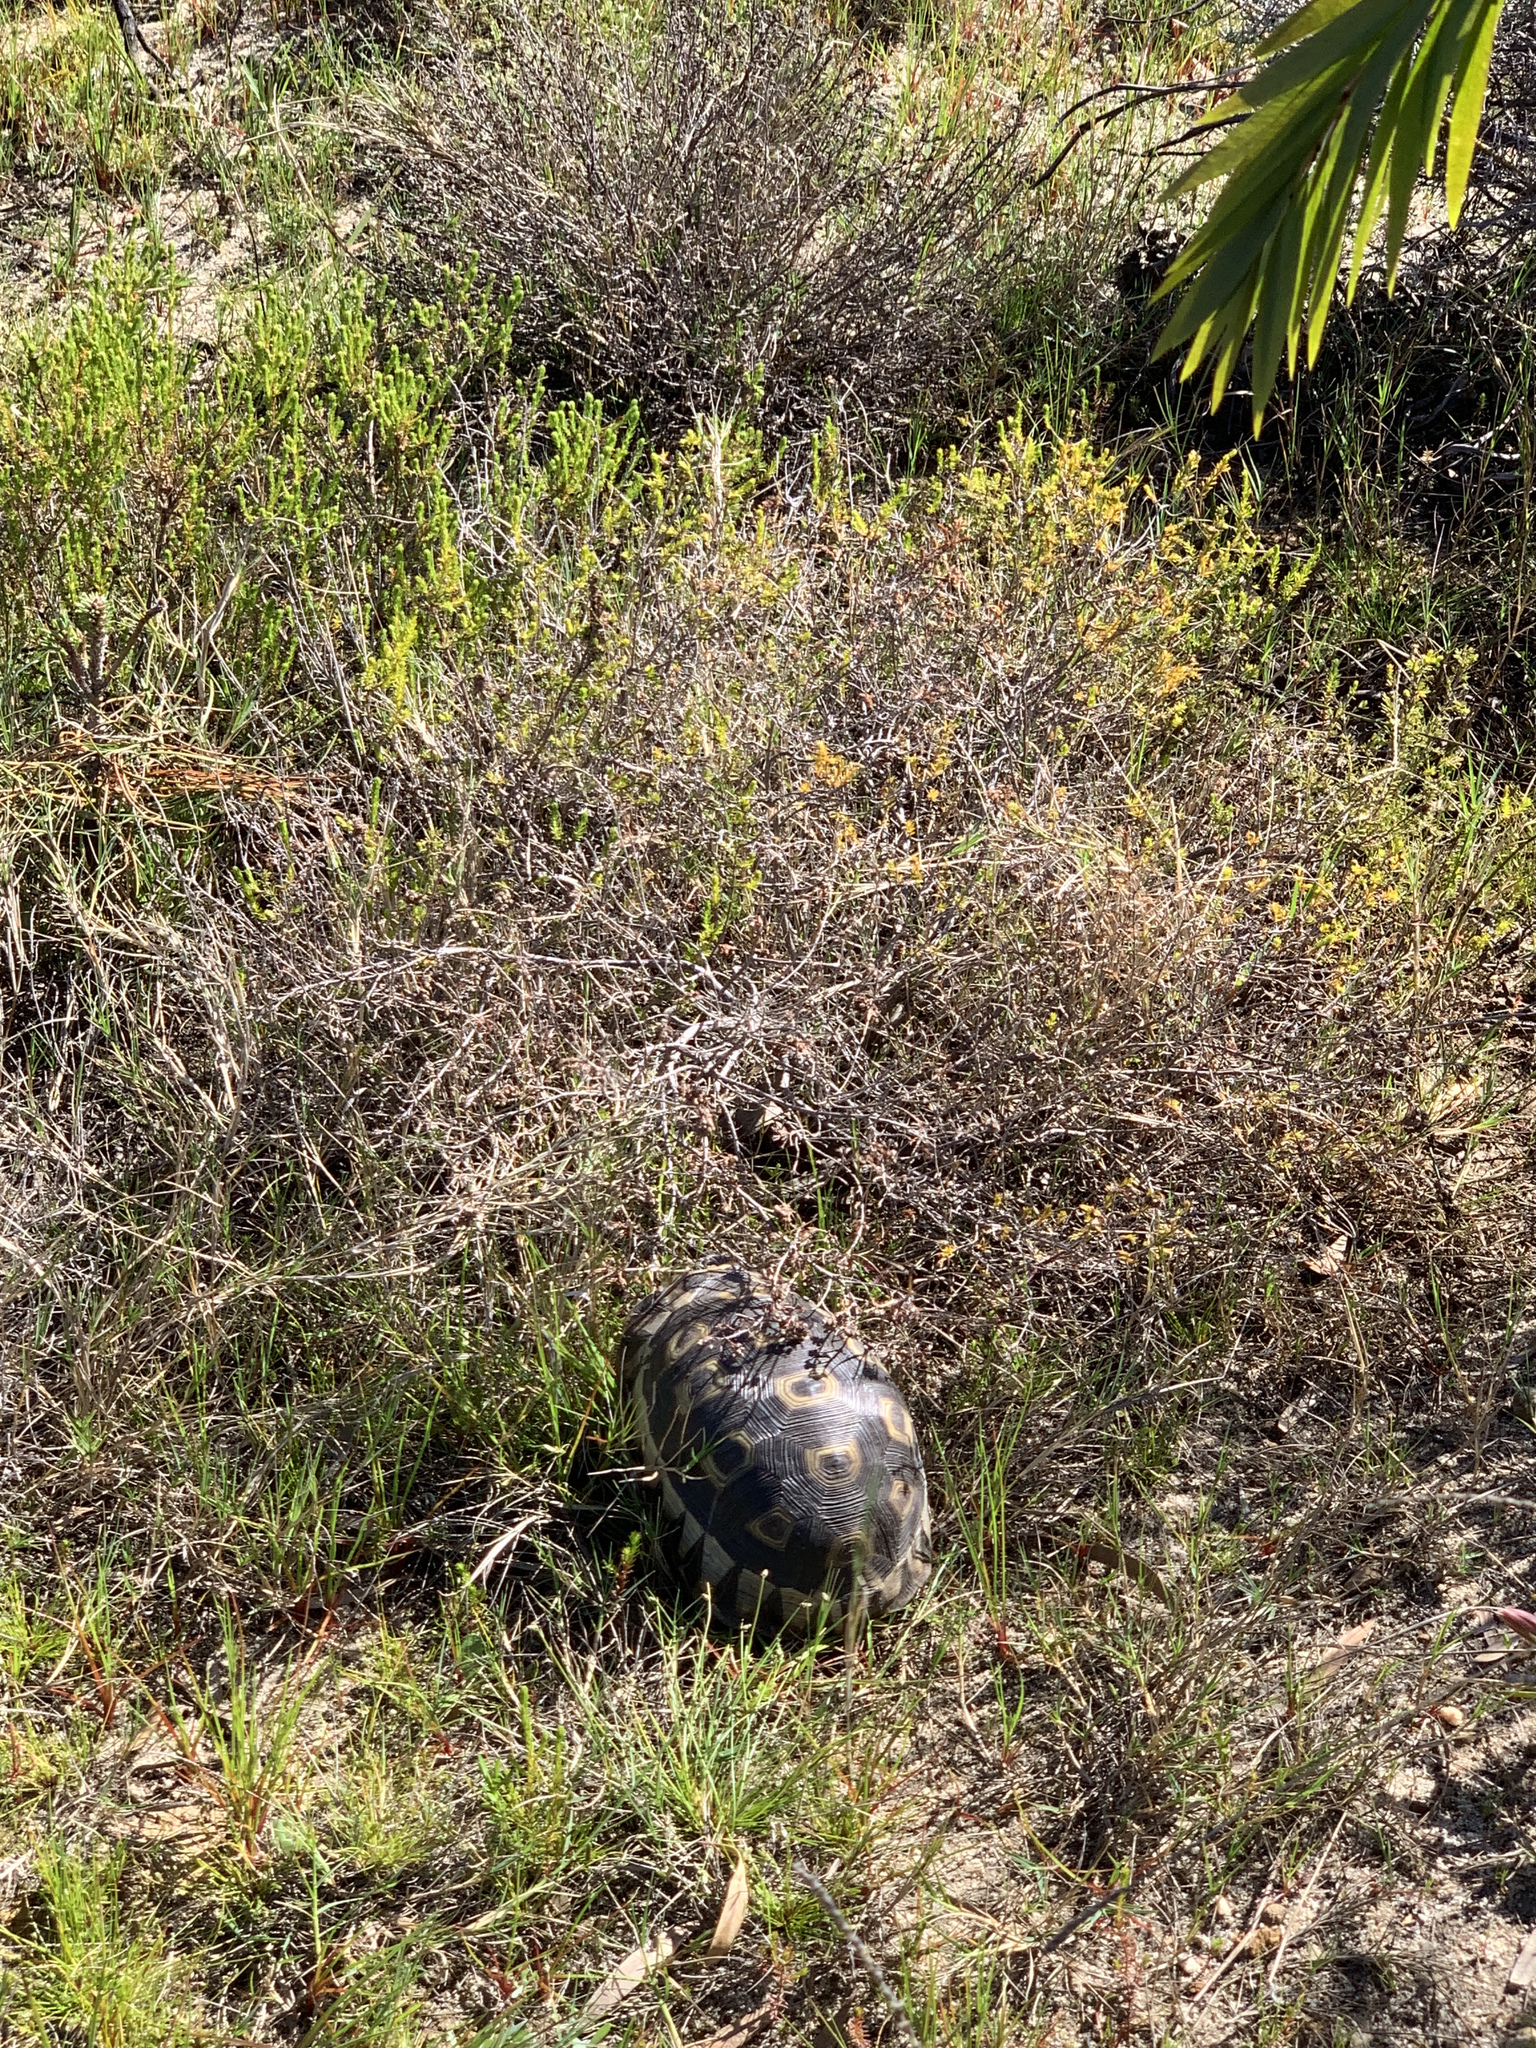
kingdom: Animalia
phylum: Chordata
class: Testudines
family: Testudinidae
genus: Chersina
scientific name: Chersina angulata
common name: South african bowsprit tortoise
